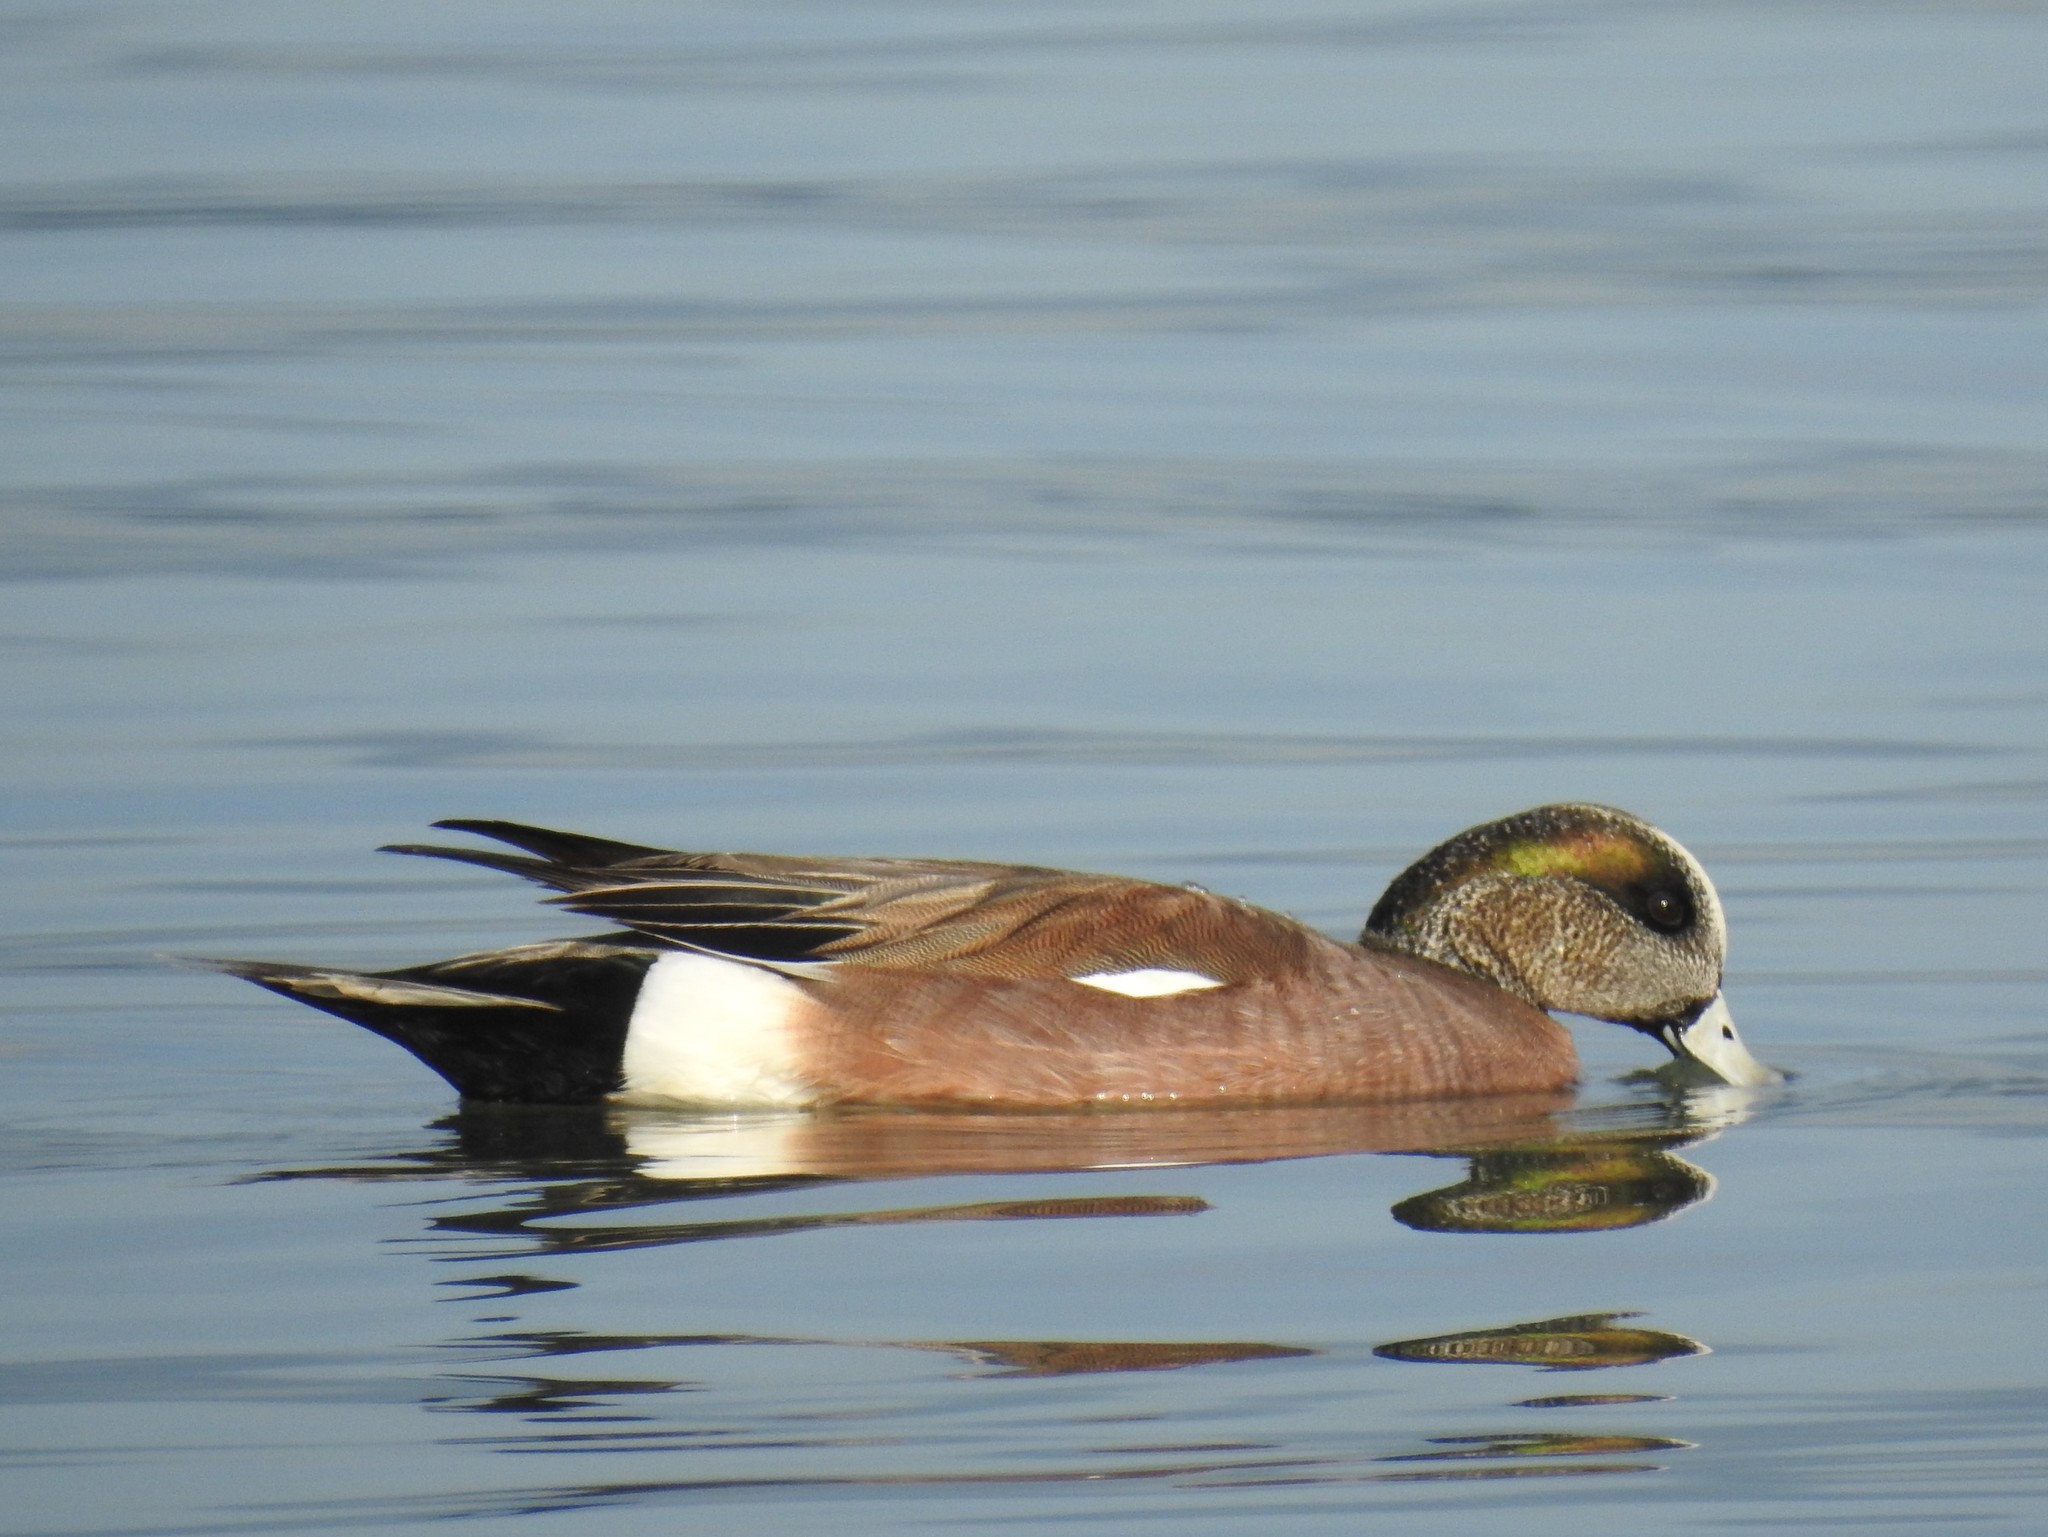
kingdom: Animalia
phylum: Chordata
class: Aves
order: Anseriformes
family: Anatidae
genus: Mareca
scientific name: Mareca americana
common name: American wigeon
